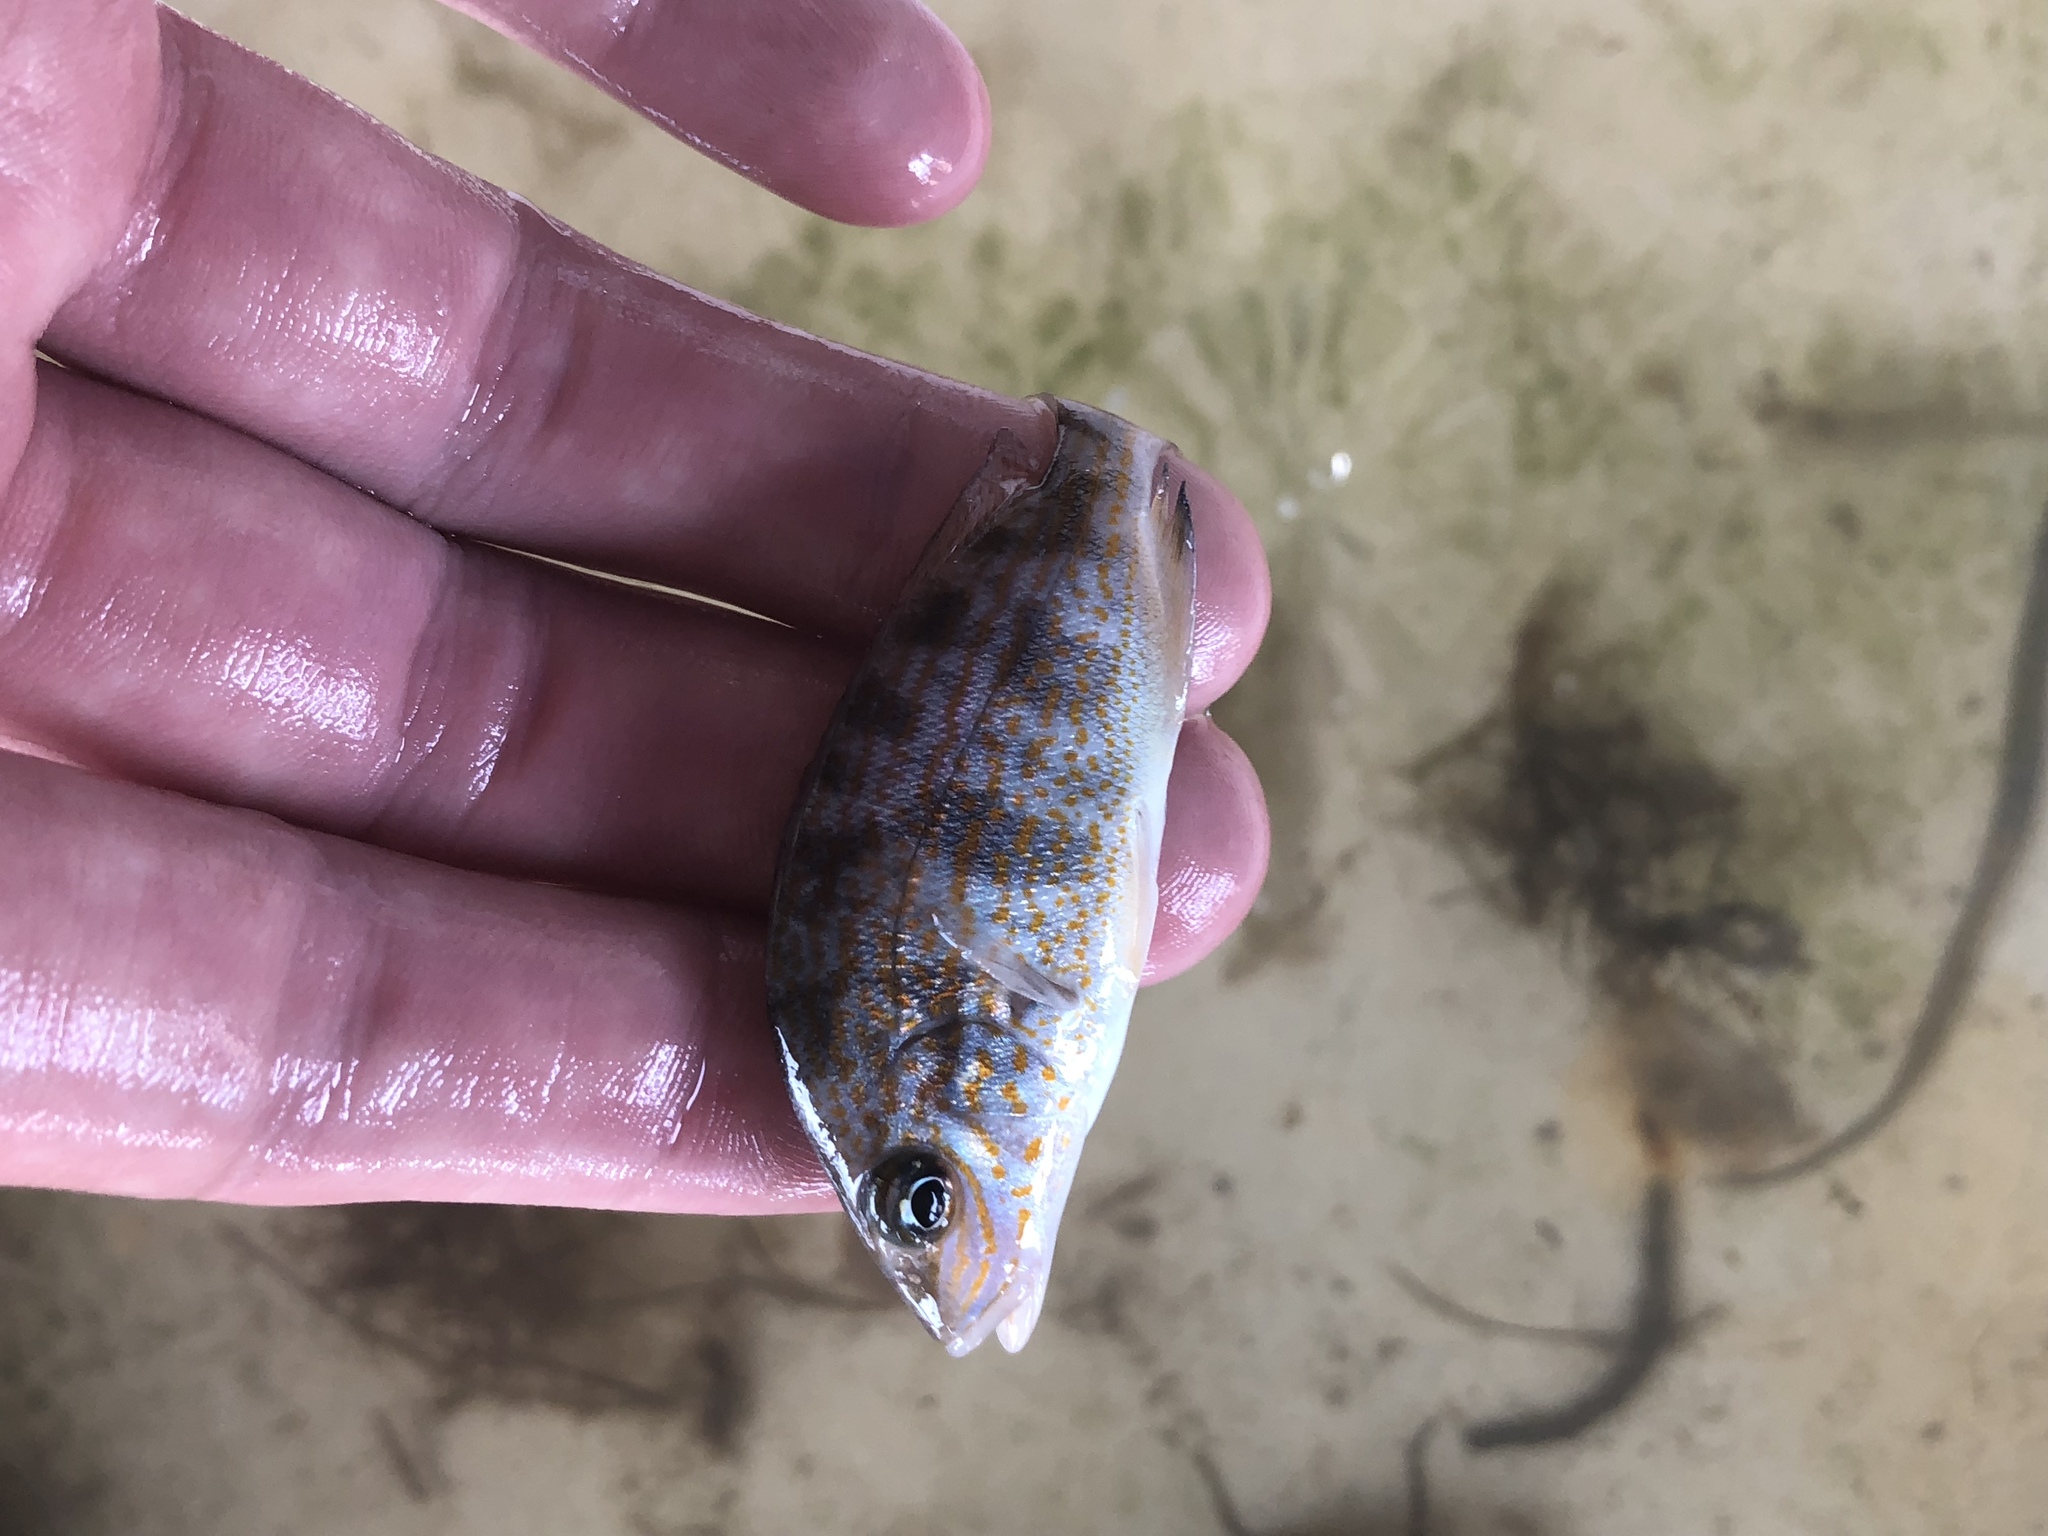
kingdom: Animalia
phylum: Chordata
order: Perciformes
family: Haemulidae
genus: Orthopristis
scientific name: Orthopristis chrysoptera
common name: Pigfish
